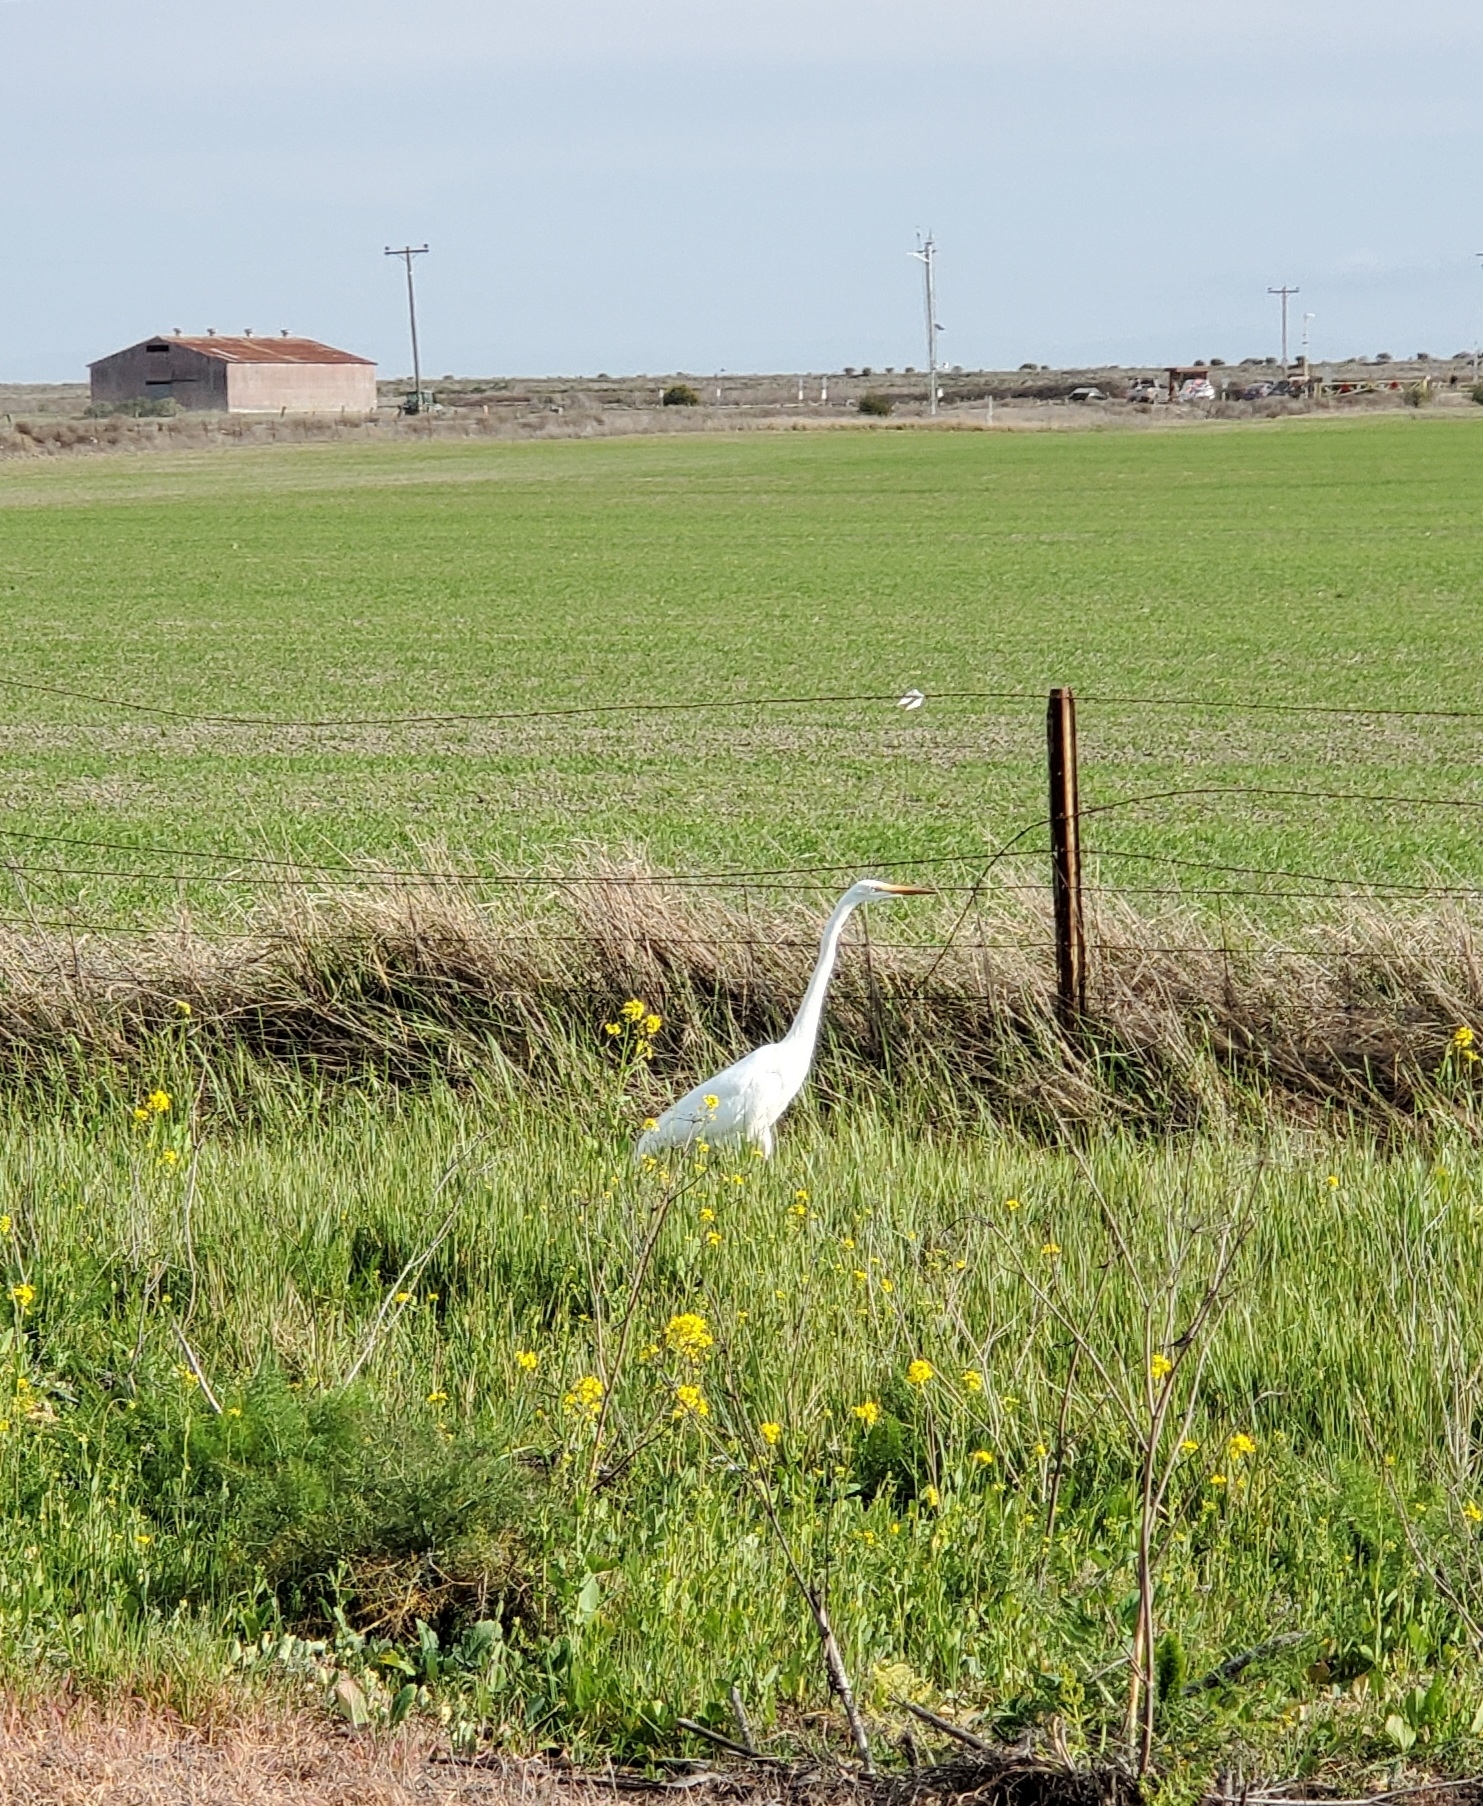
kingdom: Animalia
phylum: Chordata
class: Aves
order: Pelecaniformes
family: Ardeidae
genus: Ardea
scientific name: Ardea alba
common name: Great egret
